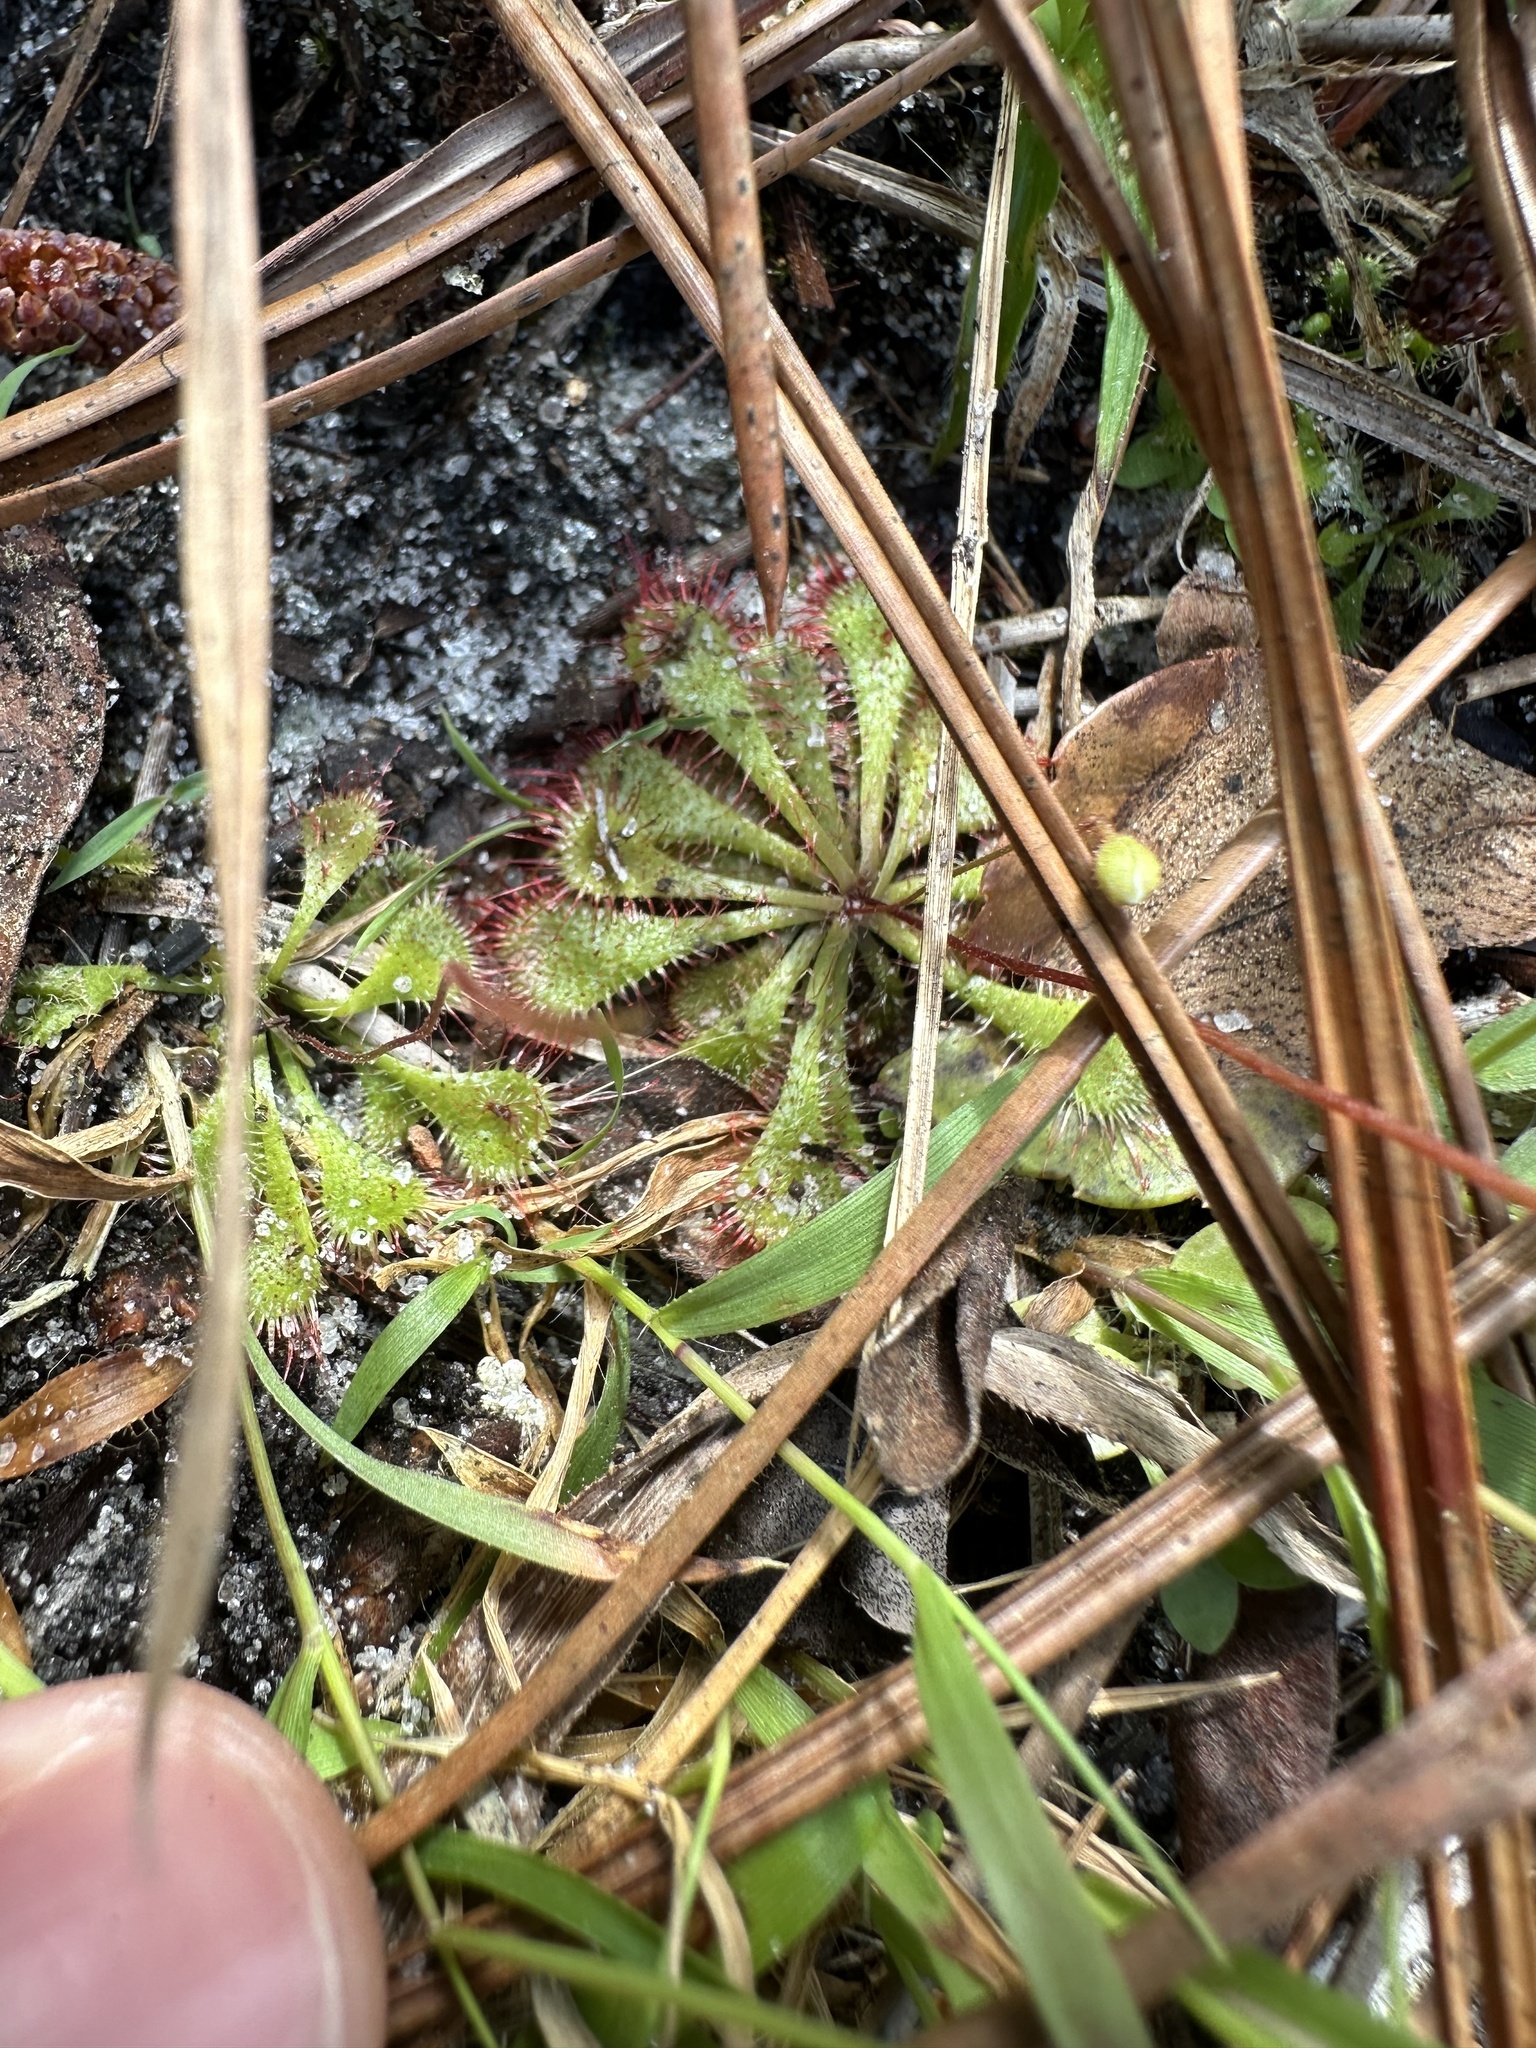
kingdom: Plantae
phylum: Tracheophyta
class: Magnoliopsida
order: Caryophyllales
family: Droseraceae
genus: Drosera
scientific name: Drosera brevifolia
